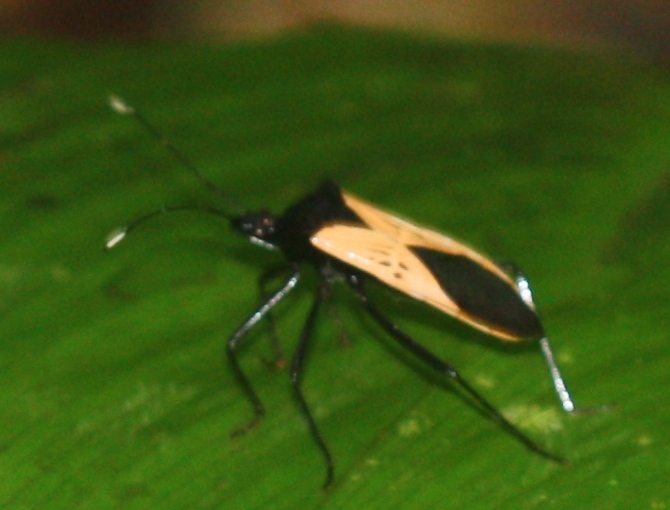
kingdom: Animalia
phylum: Arthropoda
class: Insecta
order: Hemiptera
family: Coreidae
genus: Leptoscelis
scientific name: Leptoscelis limbativentris
